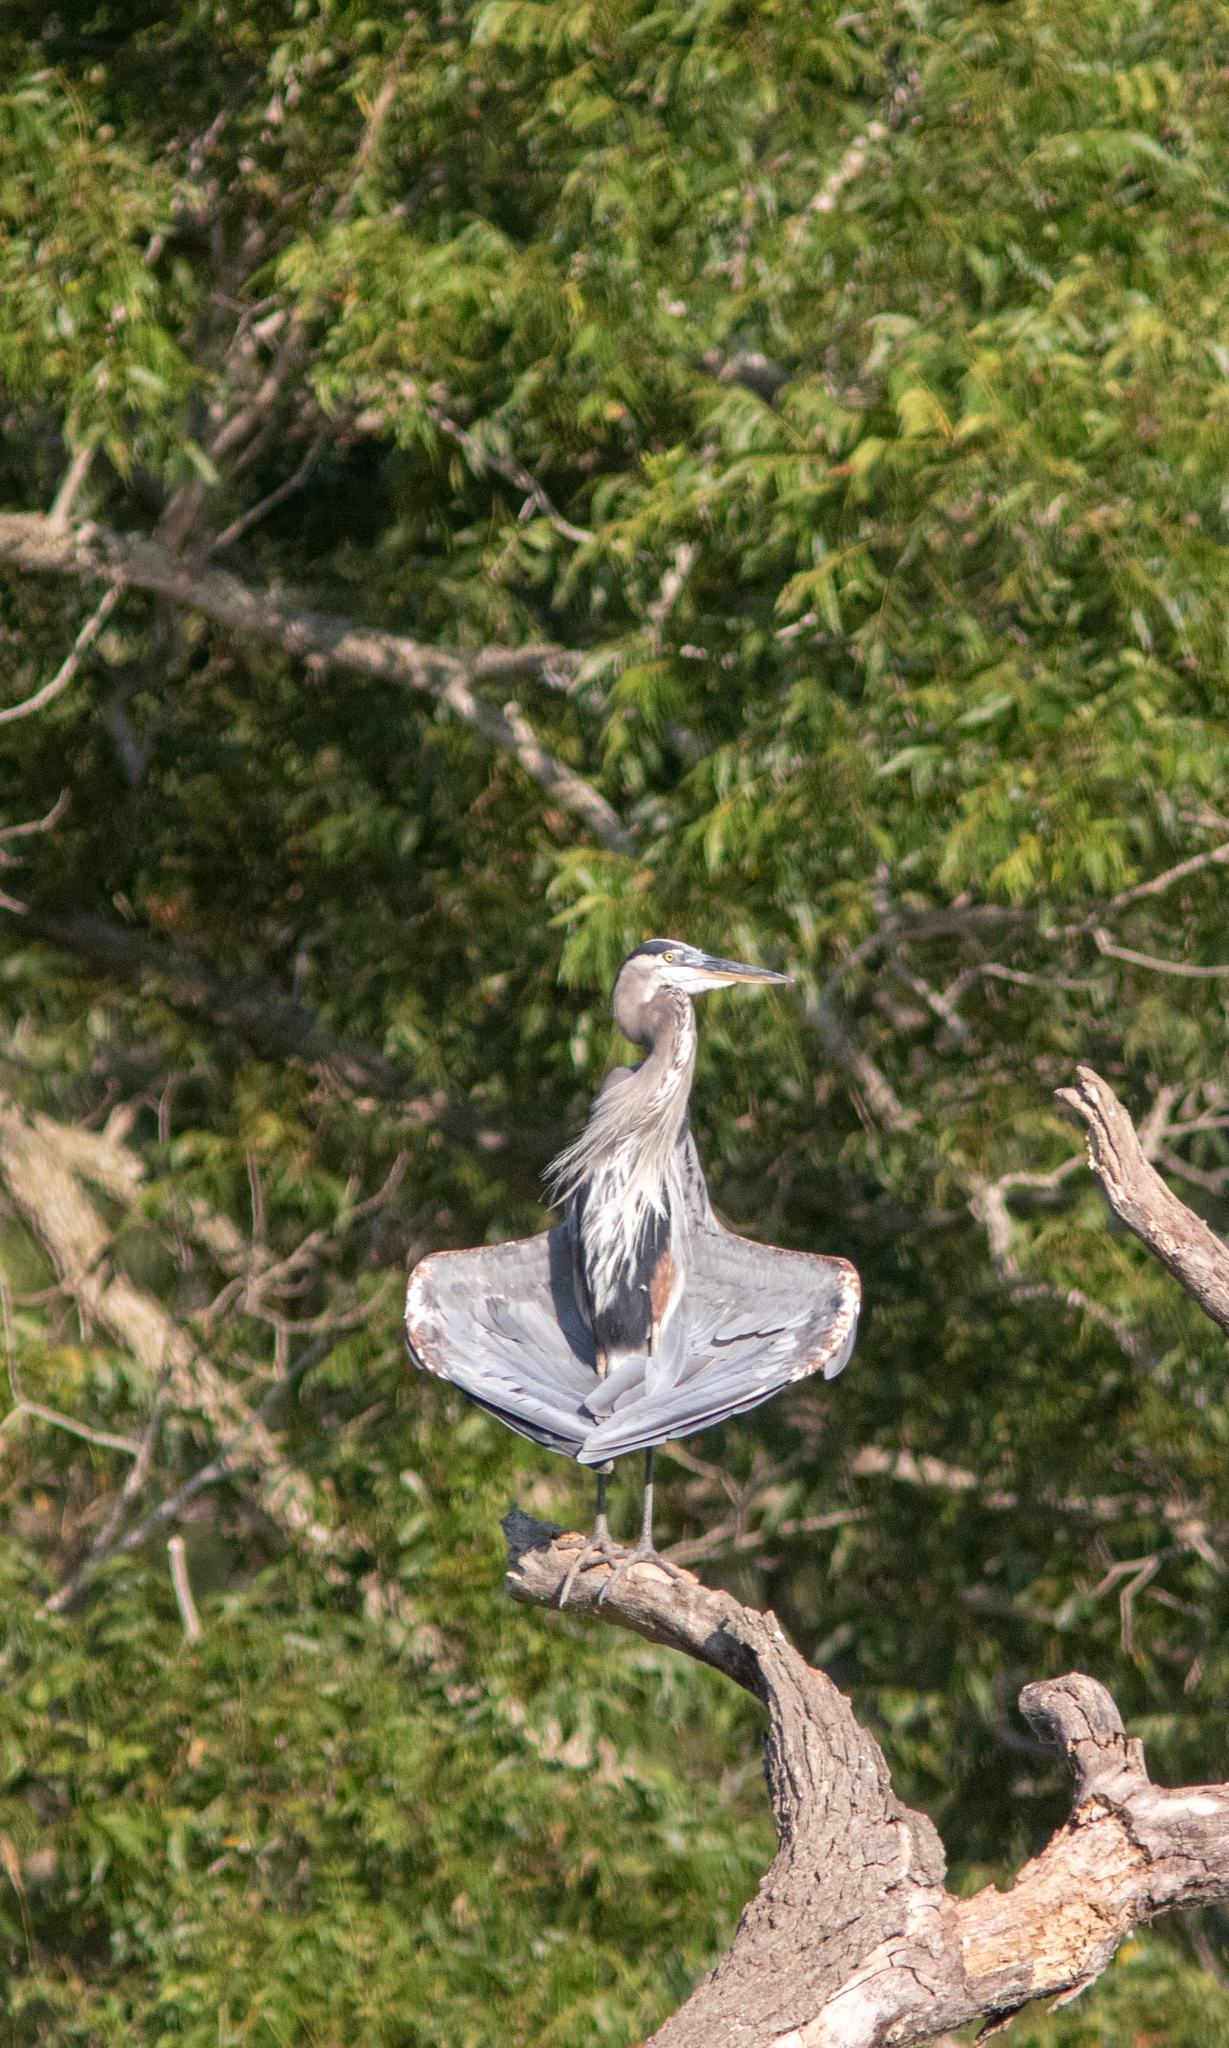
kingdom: Animalia
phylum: Chordata
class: Aves
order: Pelecaniformes
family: Ardeidae
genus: Ardea
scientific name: Ardea herodias
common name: Great blue heron
